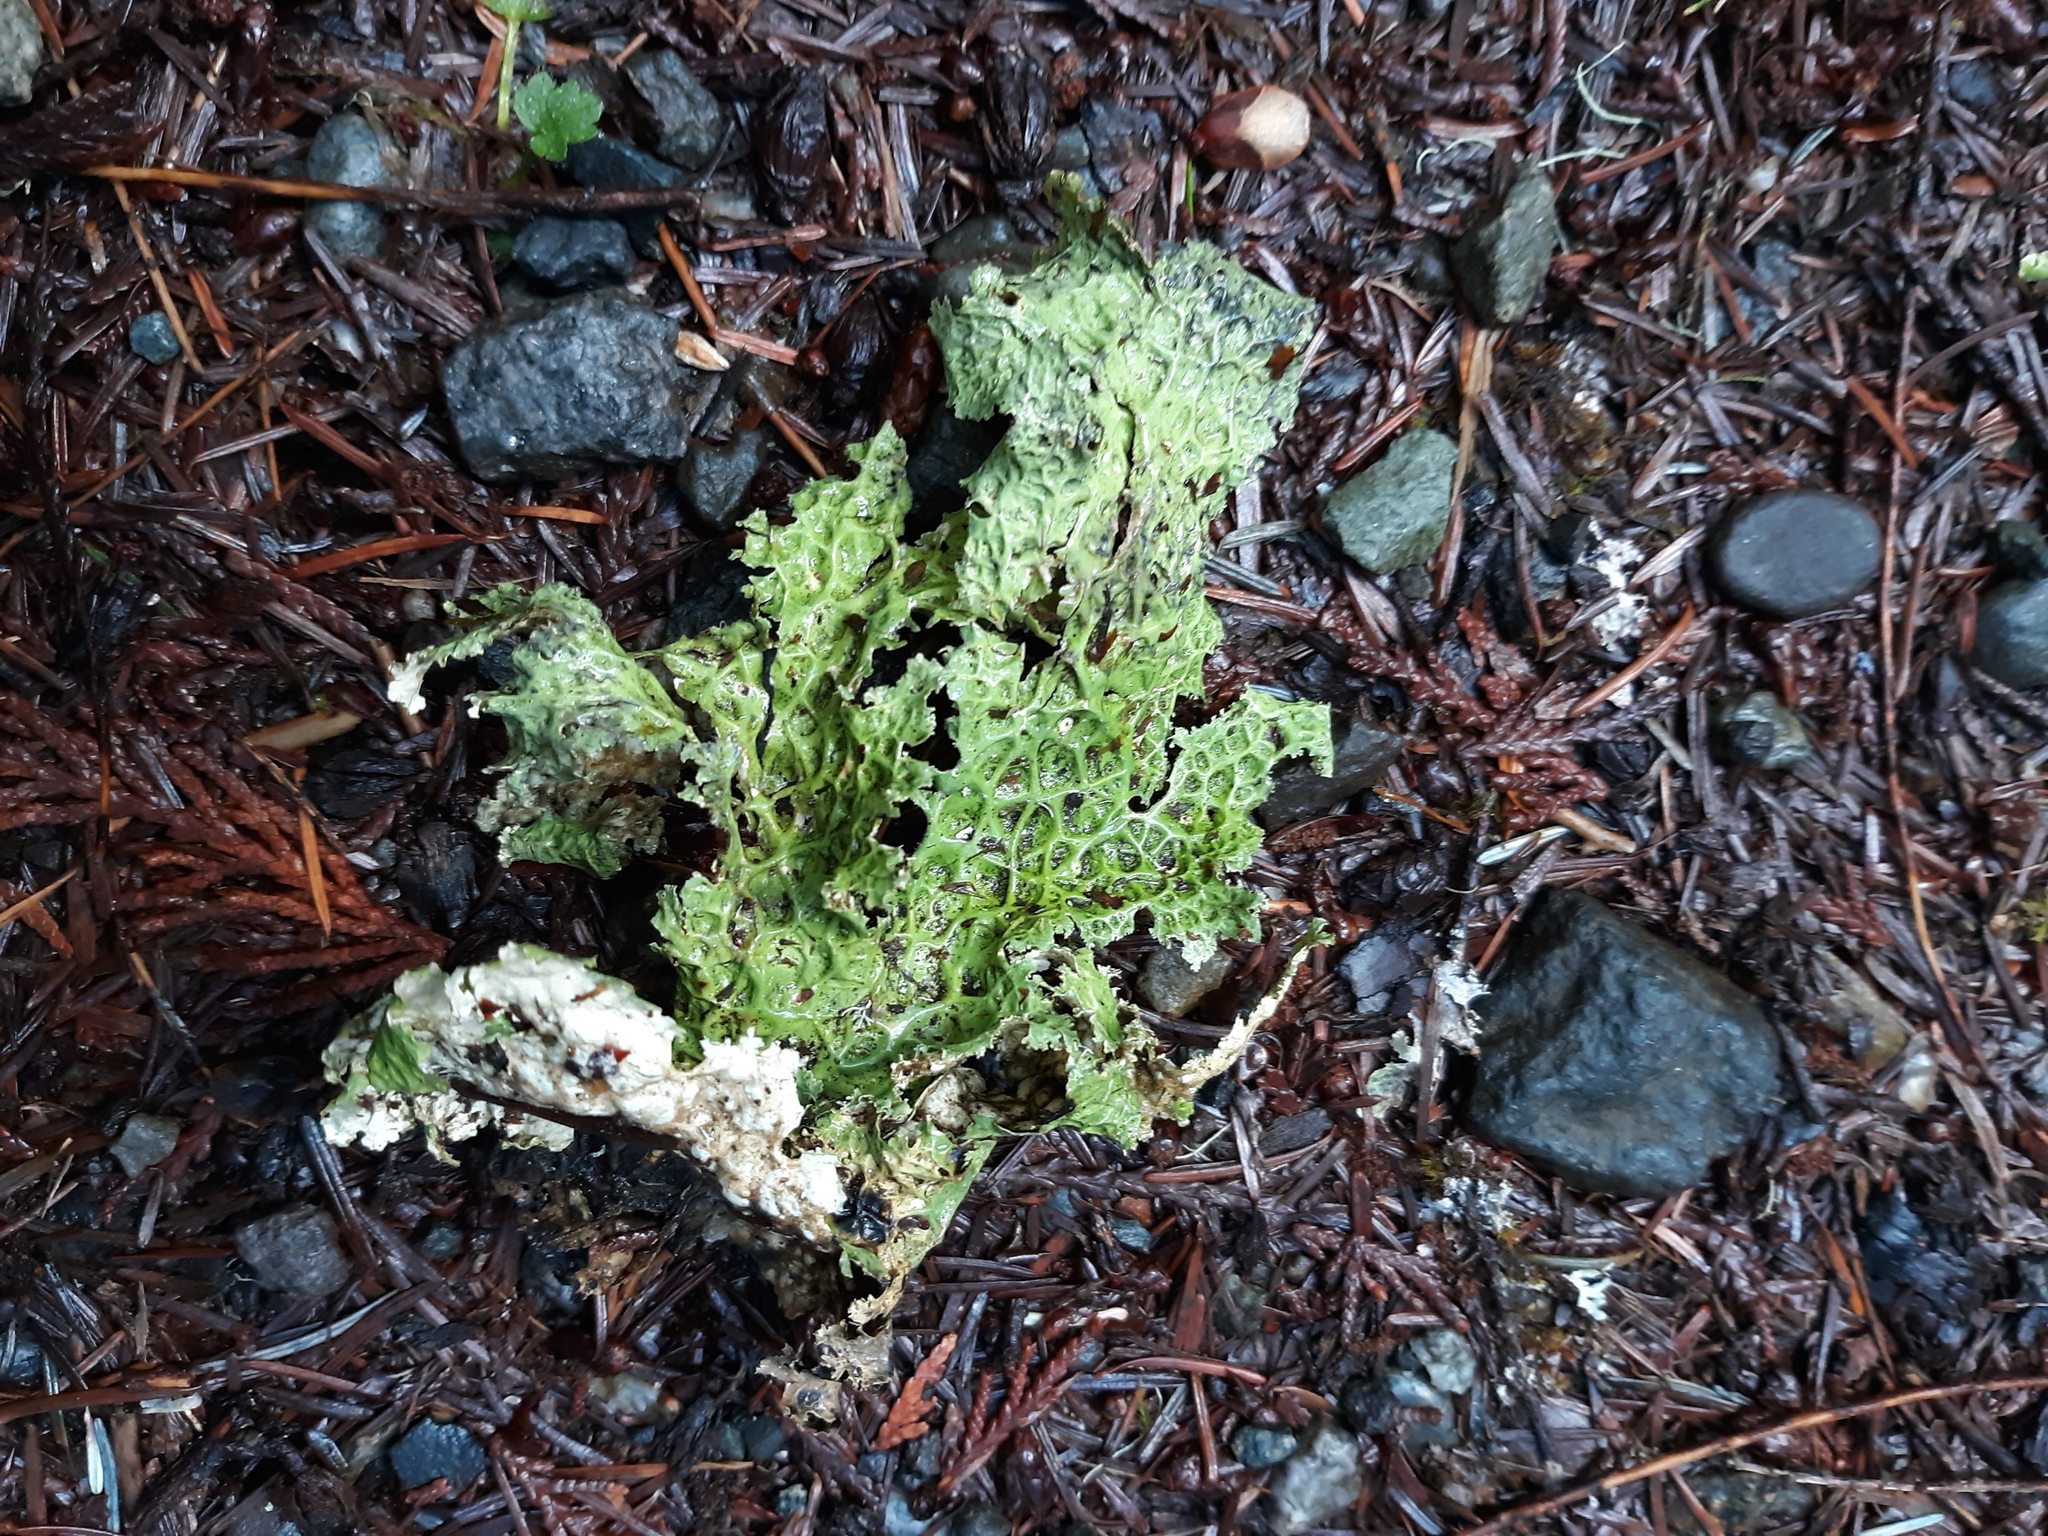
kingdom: Fungi
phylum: Ascomycota
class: Lecanoromycetes
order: Peltigerales
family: Lobariaceae
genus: Lobaria
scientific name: Lobaria oregana
